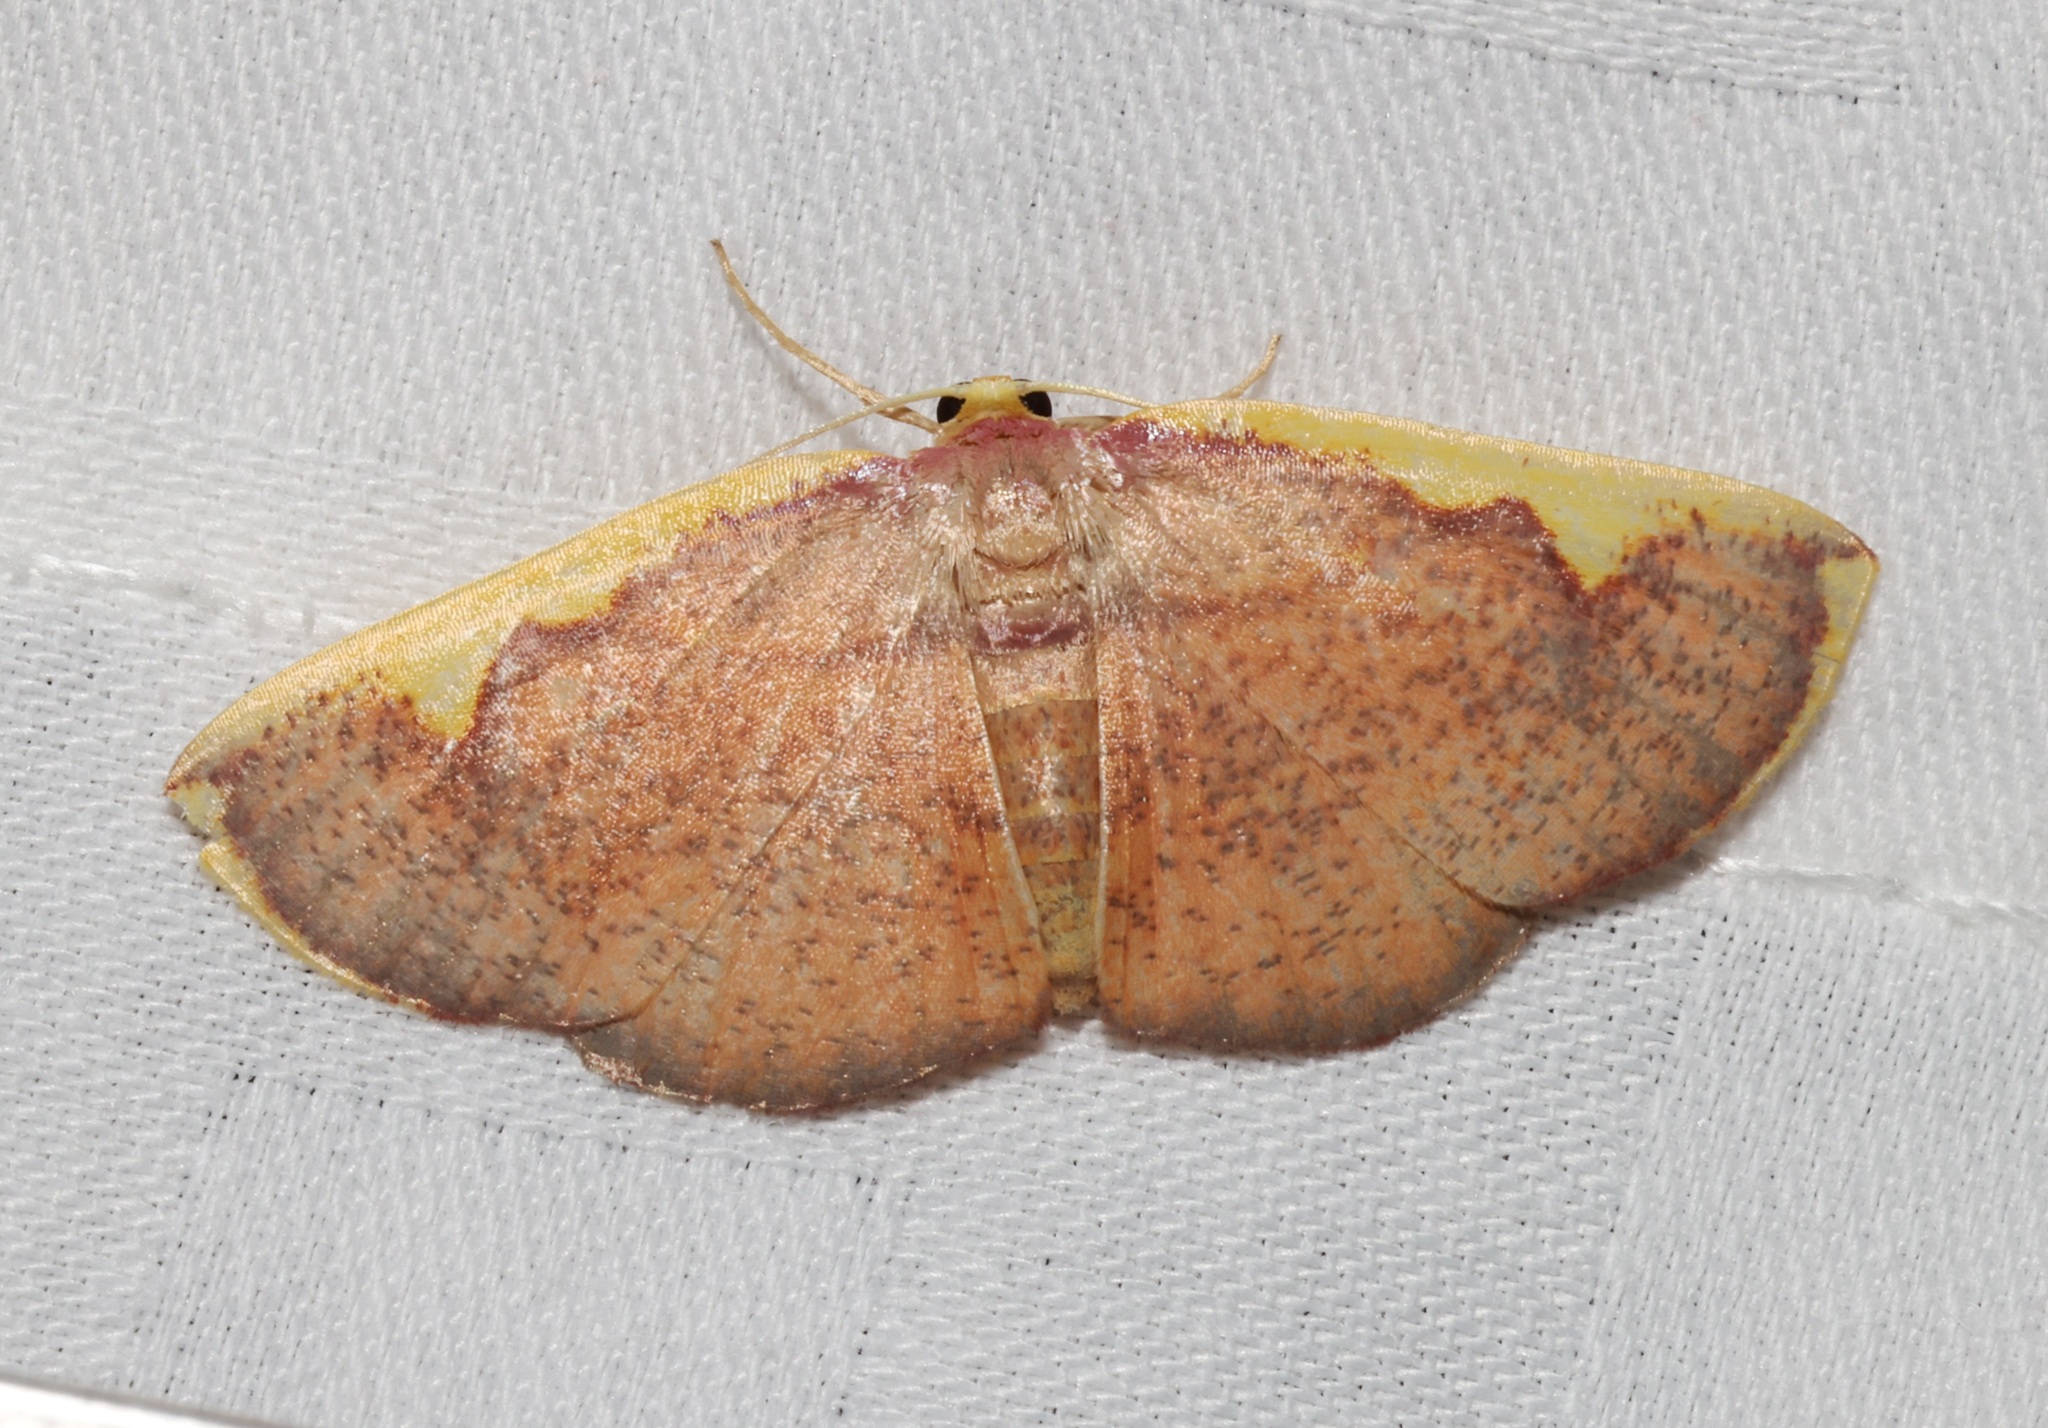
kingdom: Animalia
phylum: Arthropoda
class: Insecta
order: Lepidoptera
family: Geometridae
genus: Nothomiza
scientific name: Nothomiza flavicosta
